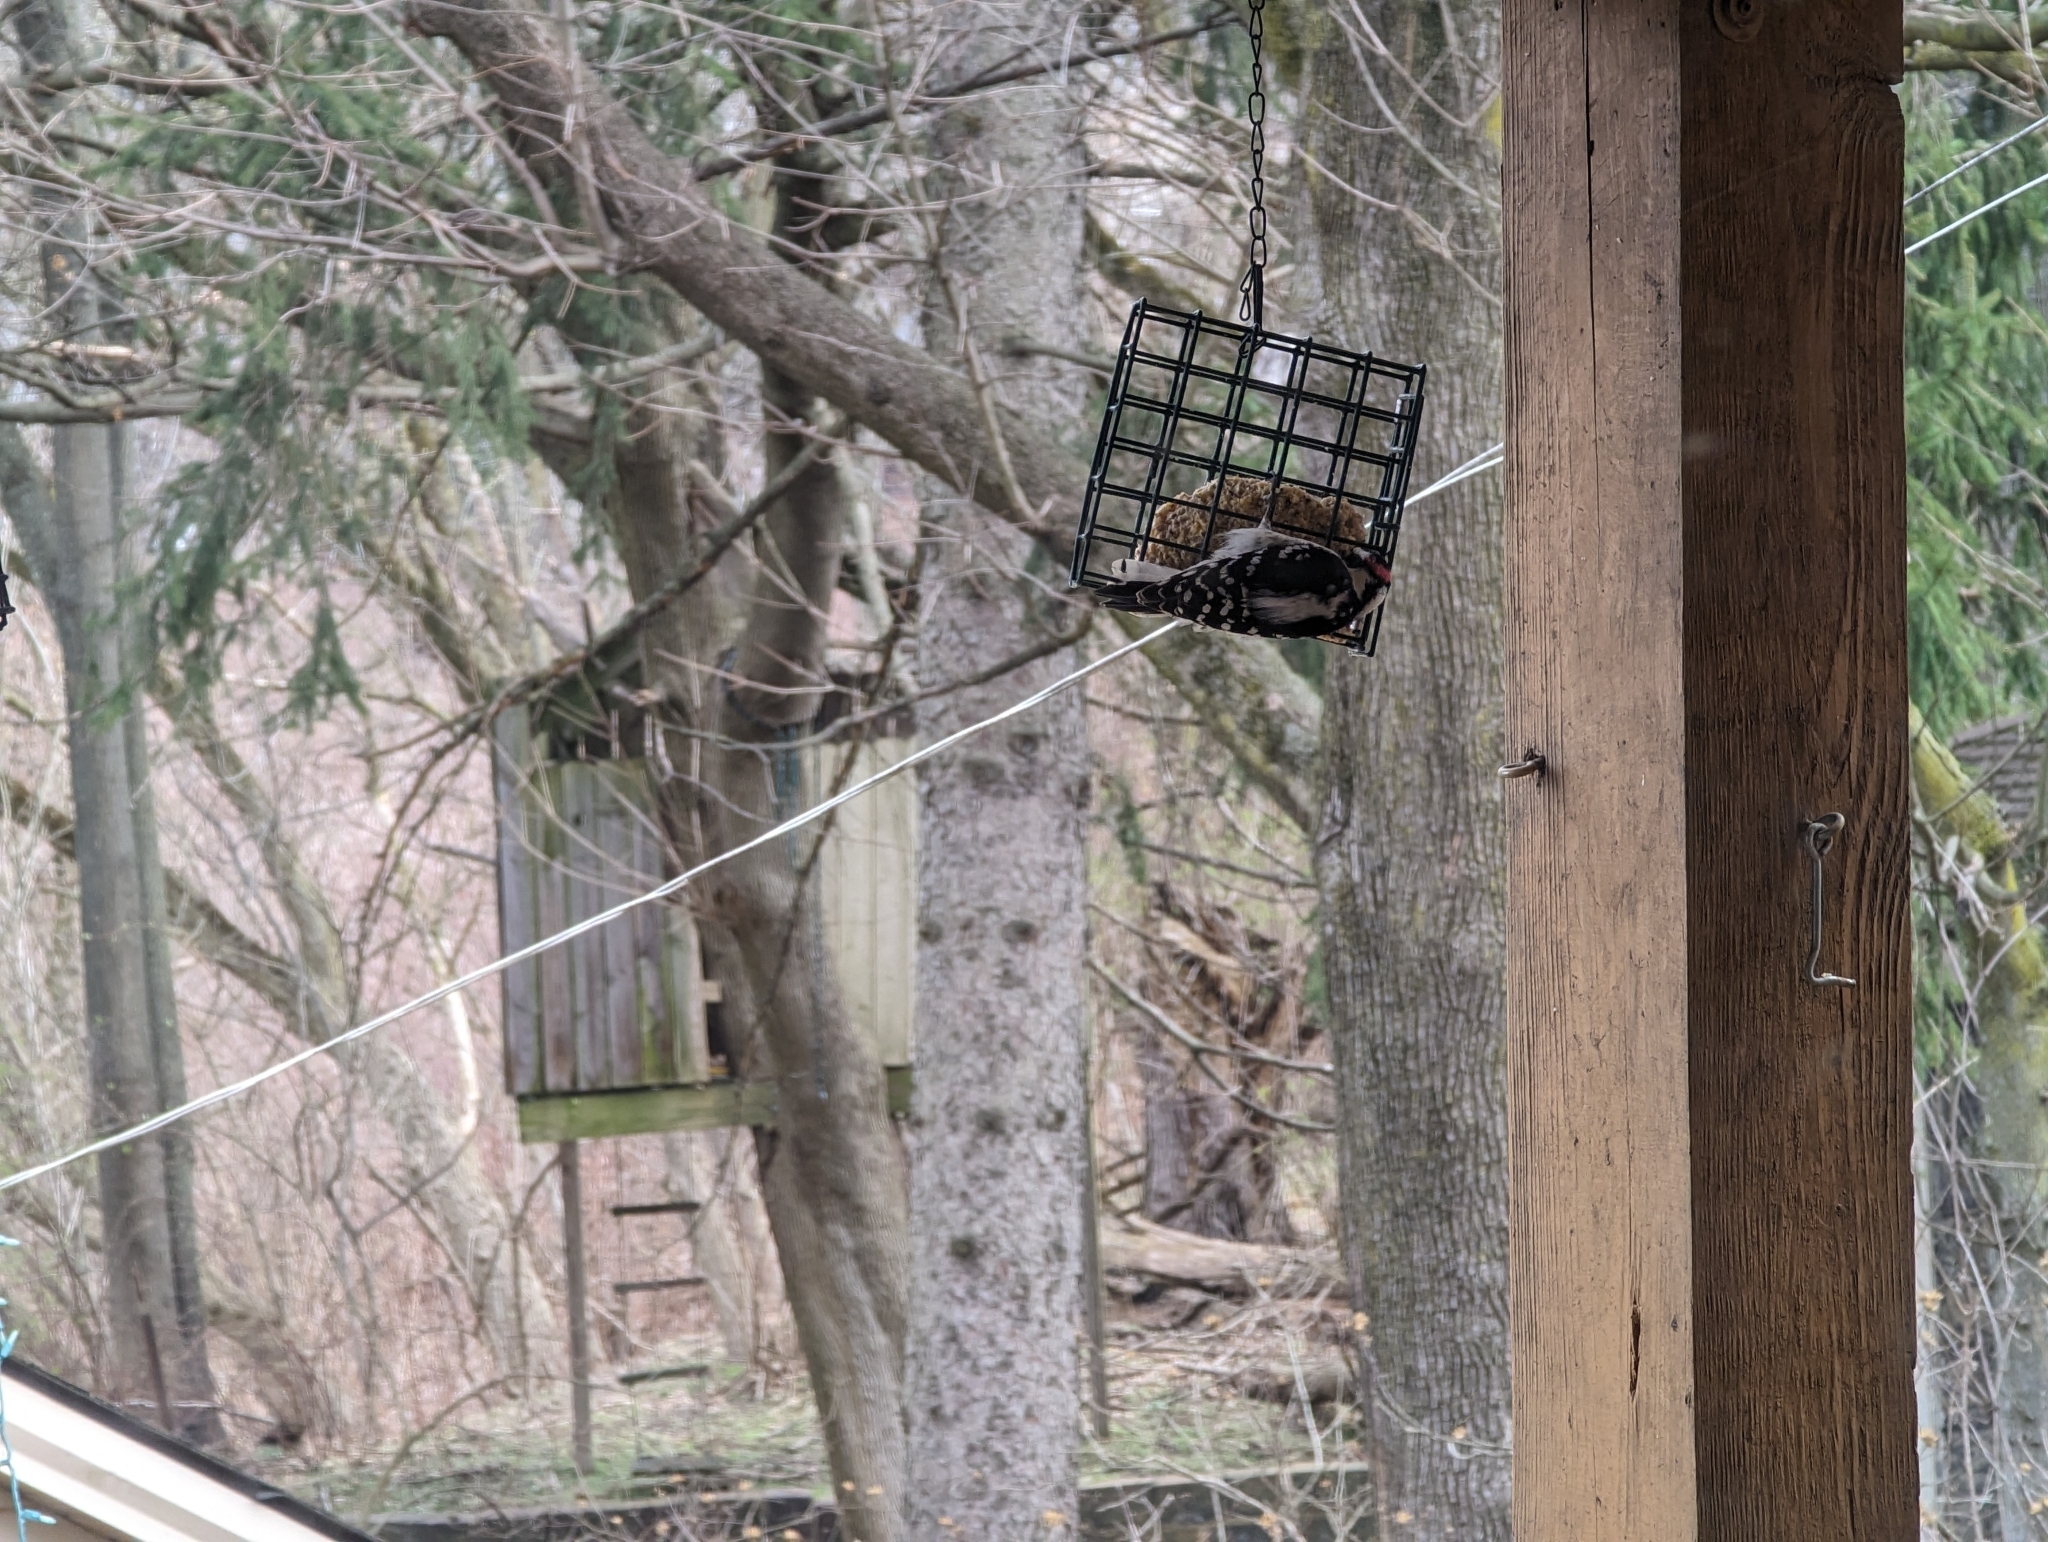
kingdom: Animalia
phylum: Chordata
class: Aves
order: Piciformes
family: Picidae
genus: Dryobates
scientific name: Dryobates pubescens
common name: Downy woodpecker
